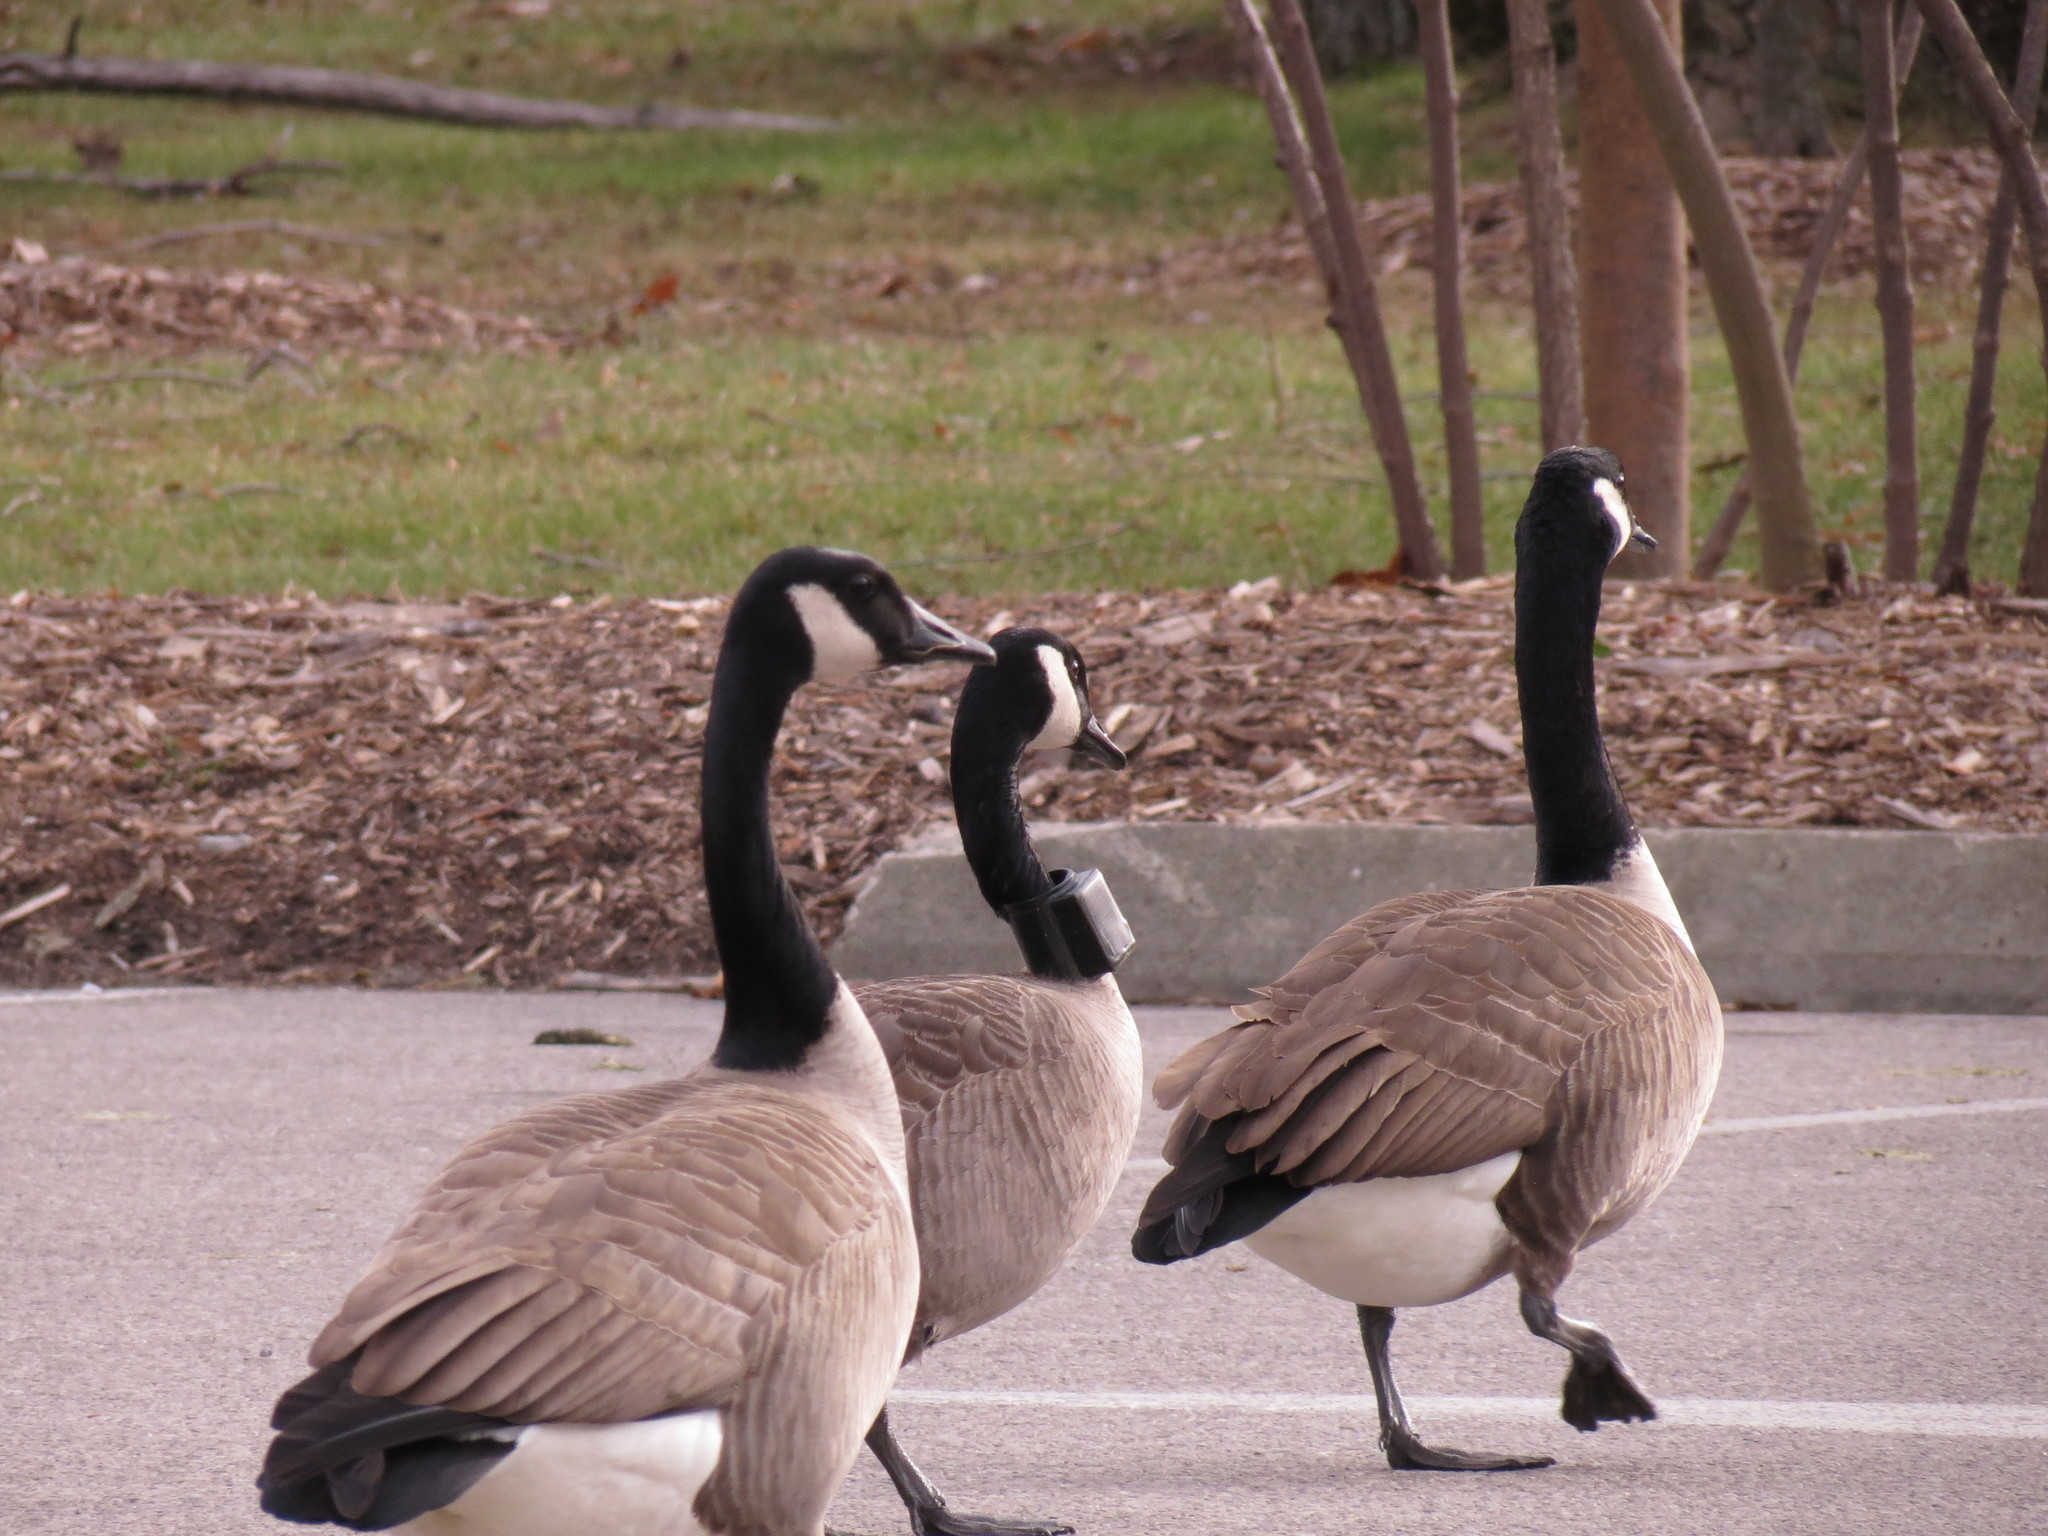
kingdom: Animalia
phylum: Chordata
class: Aves
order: Anseriformes
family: Anatidae
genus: Branta
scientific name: Branta canadensis
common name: Canada goose
